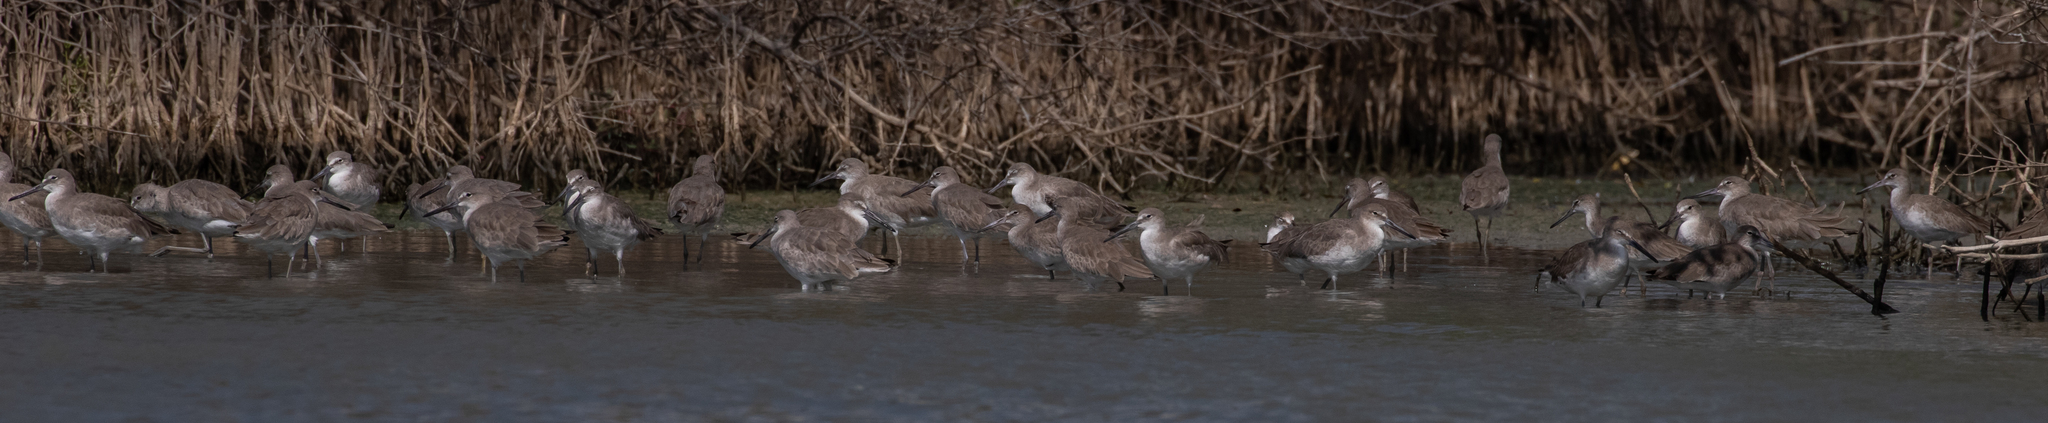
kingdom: Animalia
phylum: Chordata
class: Aves
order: Charadriiformes
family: Scolopacidae
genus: Tringa
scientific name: Tringa semipalmata
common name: Willet
